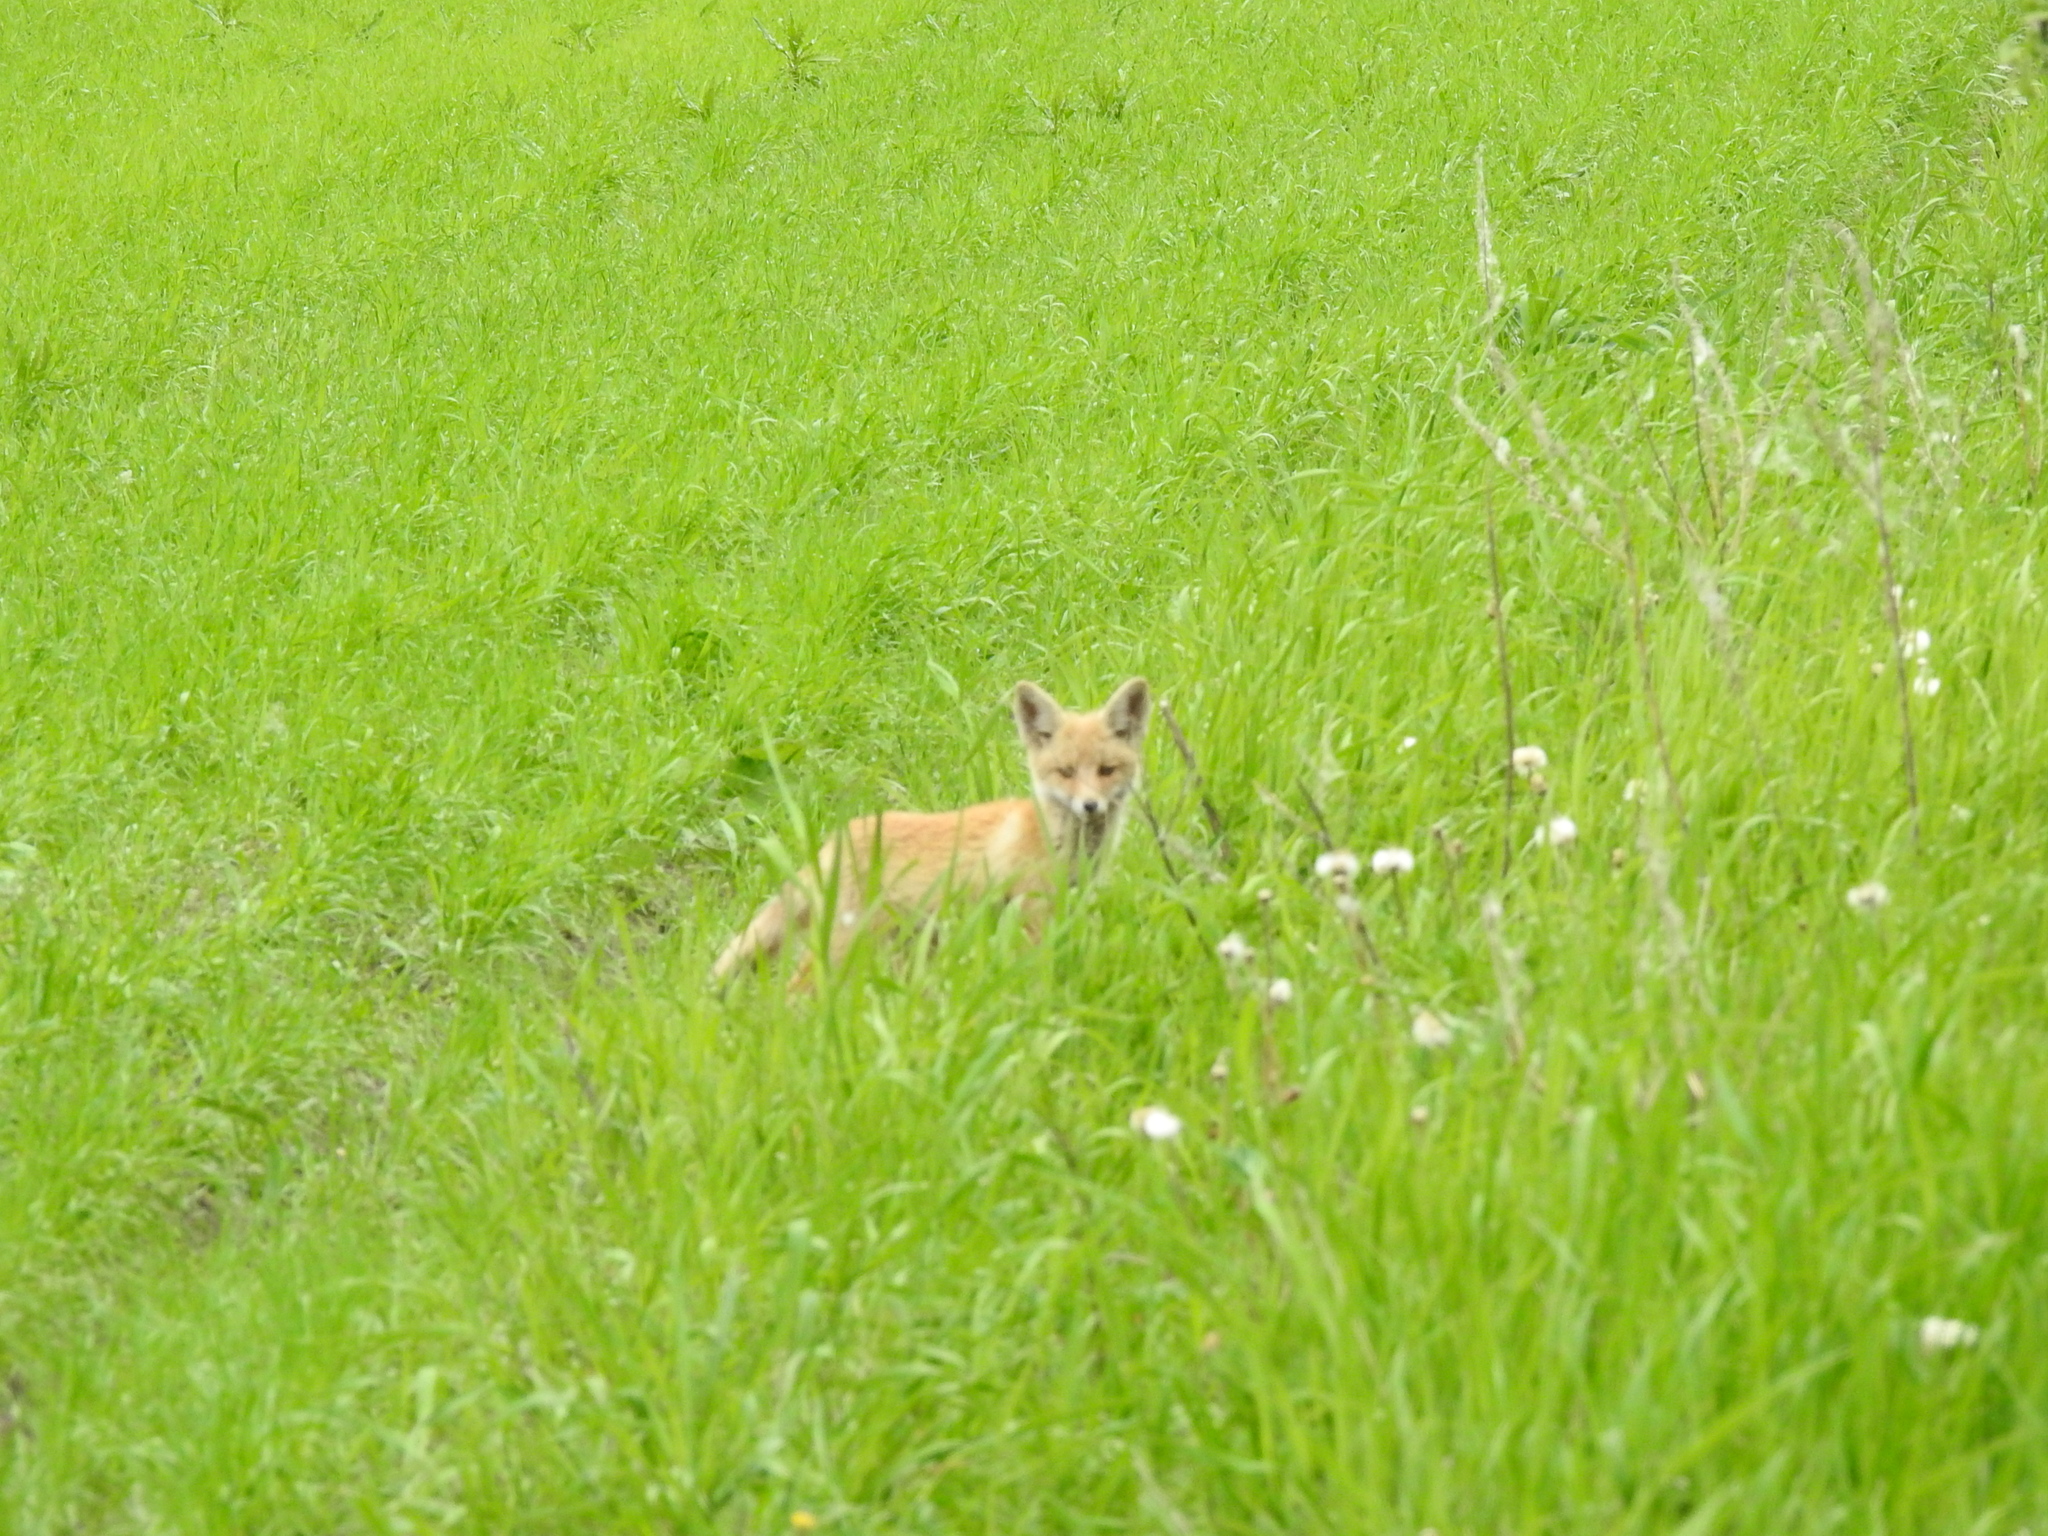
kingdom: Animalia
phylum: Chordata
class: Mammalia
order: Carnivora
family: Canidae
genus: Vulpes
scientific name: Vulpes vulpes
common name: Red fox
